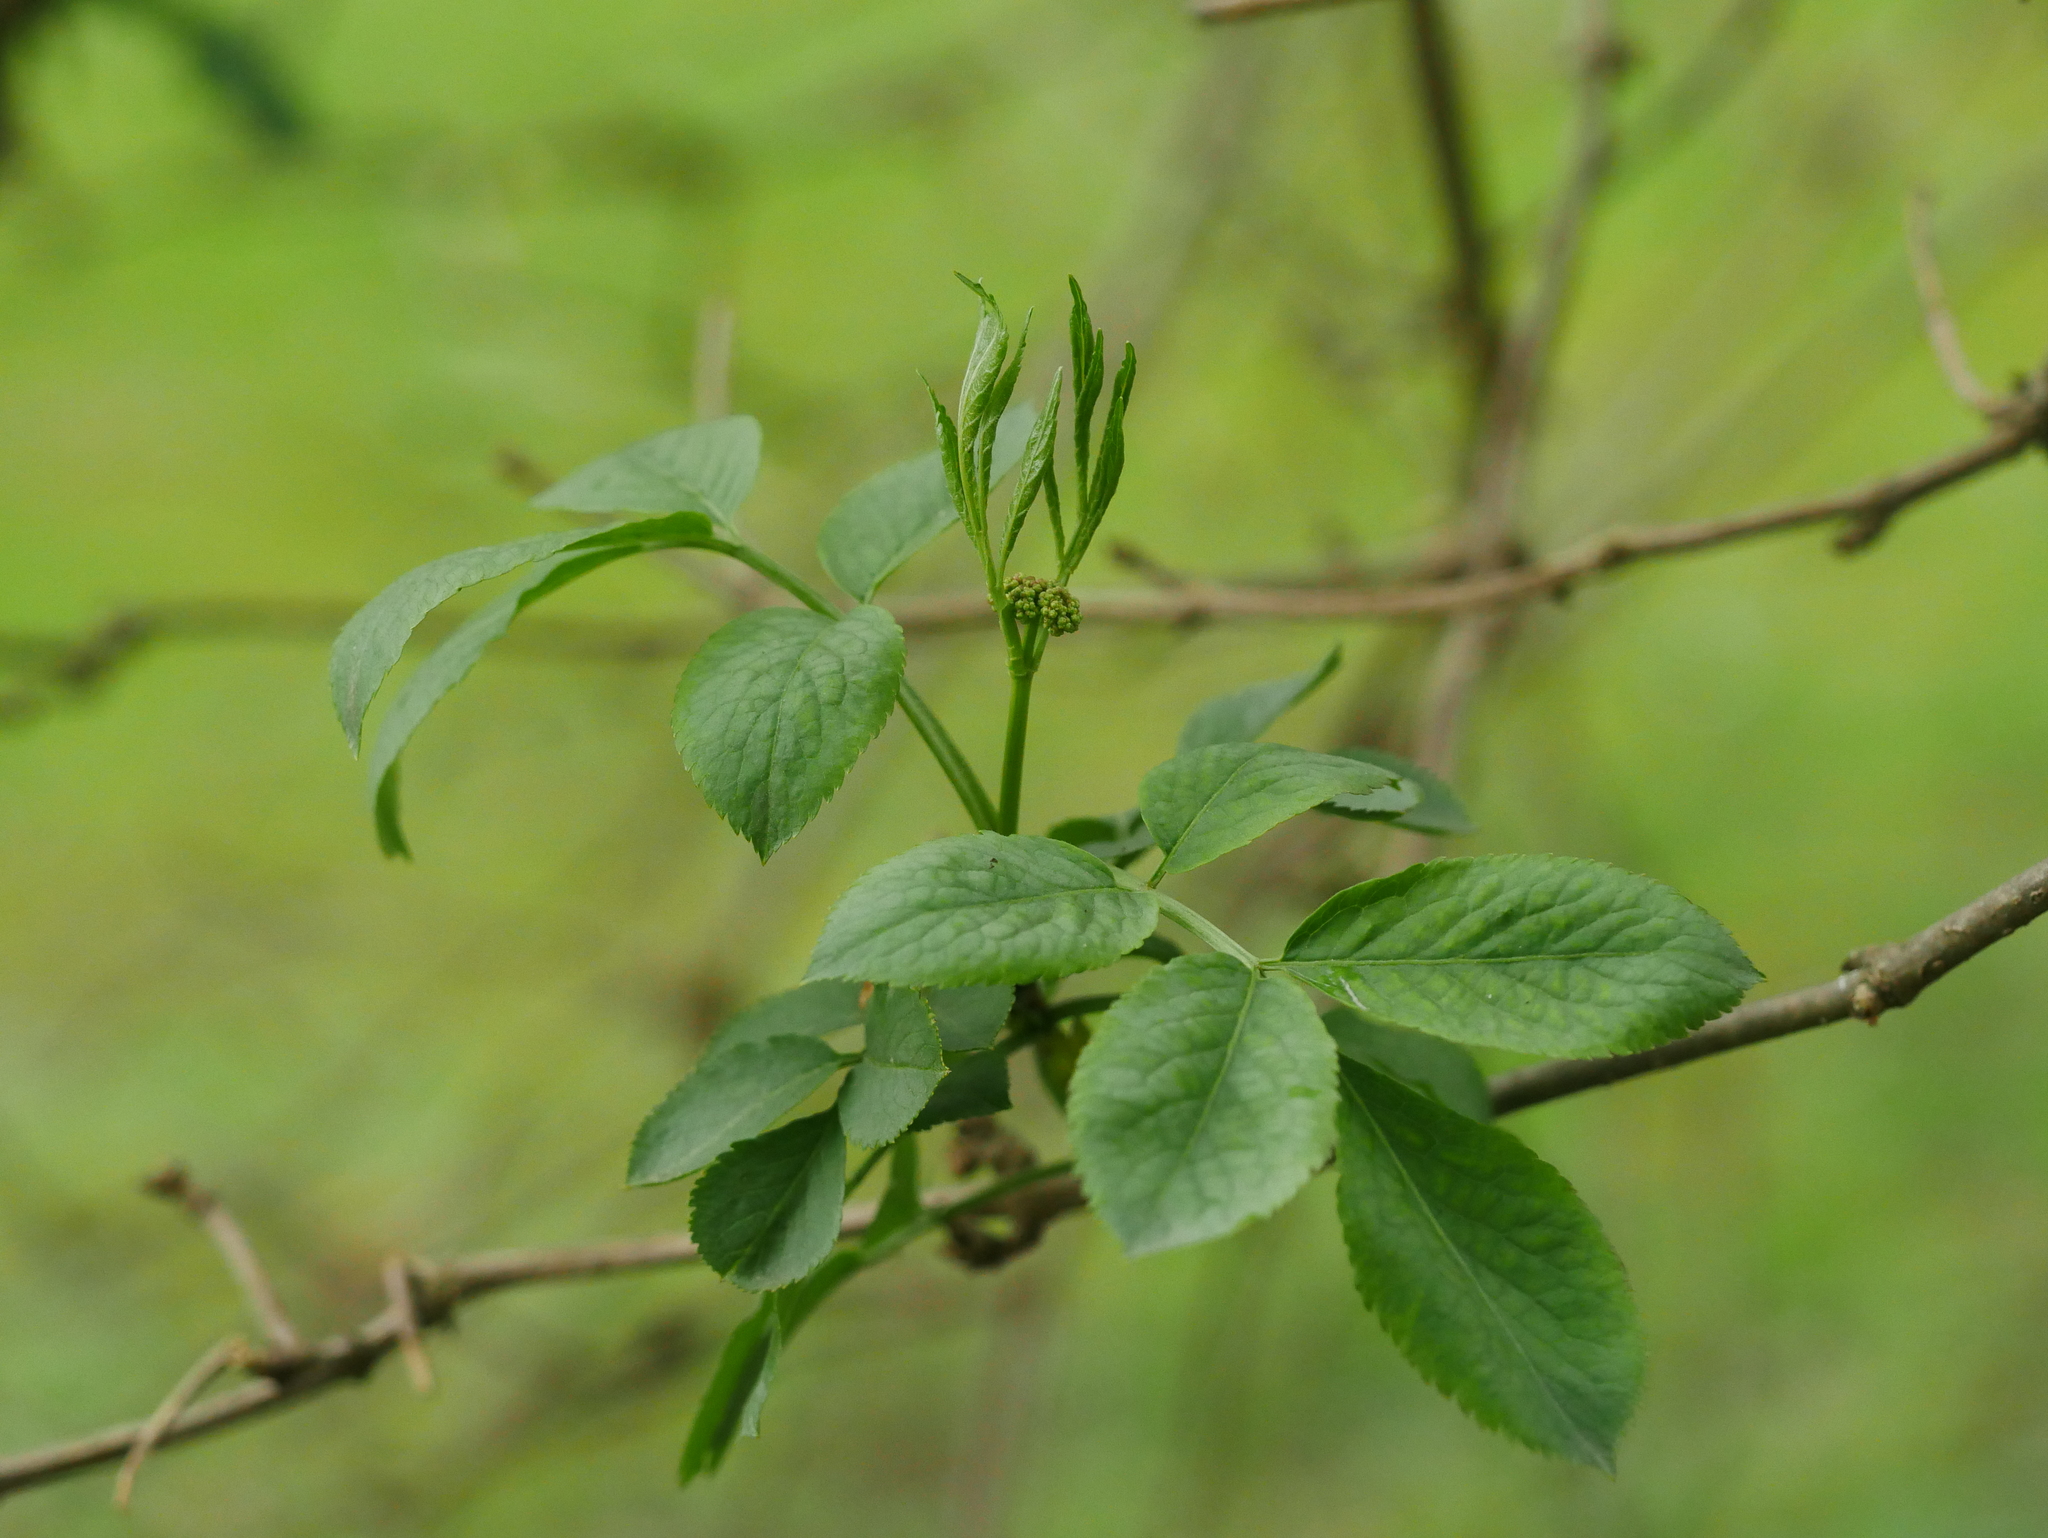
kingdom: Plantae
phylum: Tracheophyta
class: Magnoliopsida
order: Dipsacales
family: Viburnaceae
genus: Sambucus
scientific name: Sambucus nigra
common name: Elder
